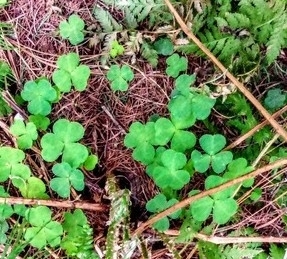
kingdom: Plantae
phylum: Tracheophyta
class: Magnoliopsida
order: Oxalidales
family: Oxalidaceae
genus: Oxalis
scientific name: Oxalis acetosella
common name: Wood-sorrel
